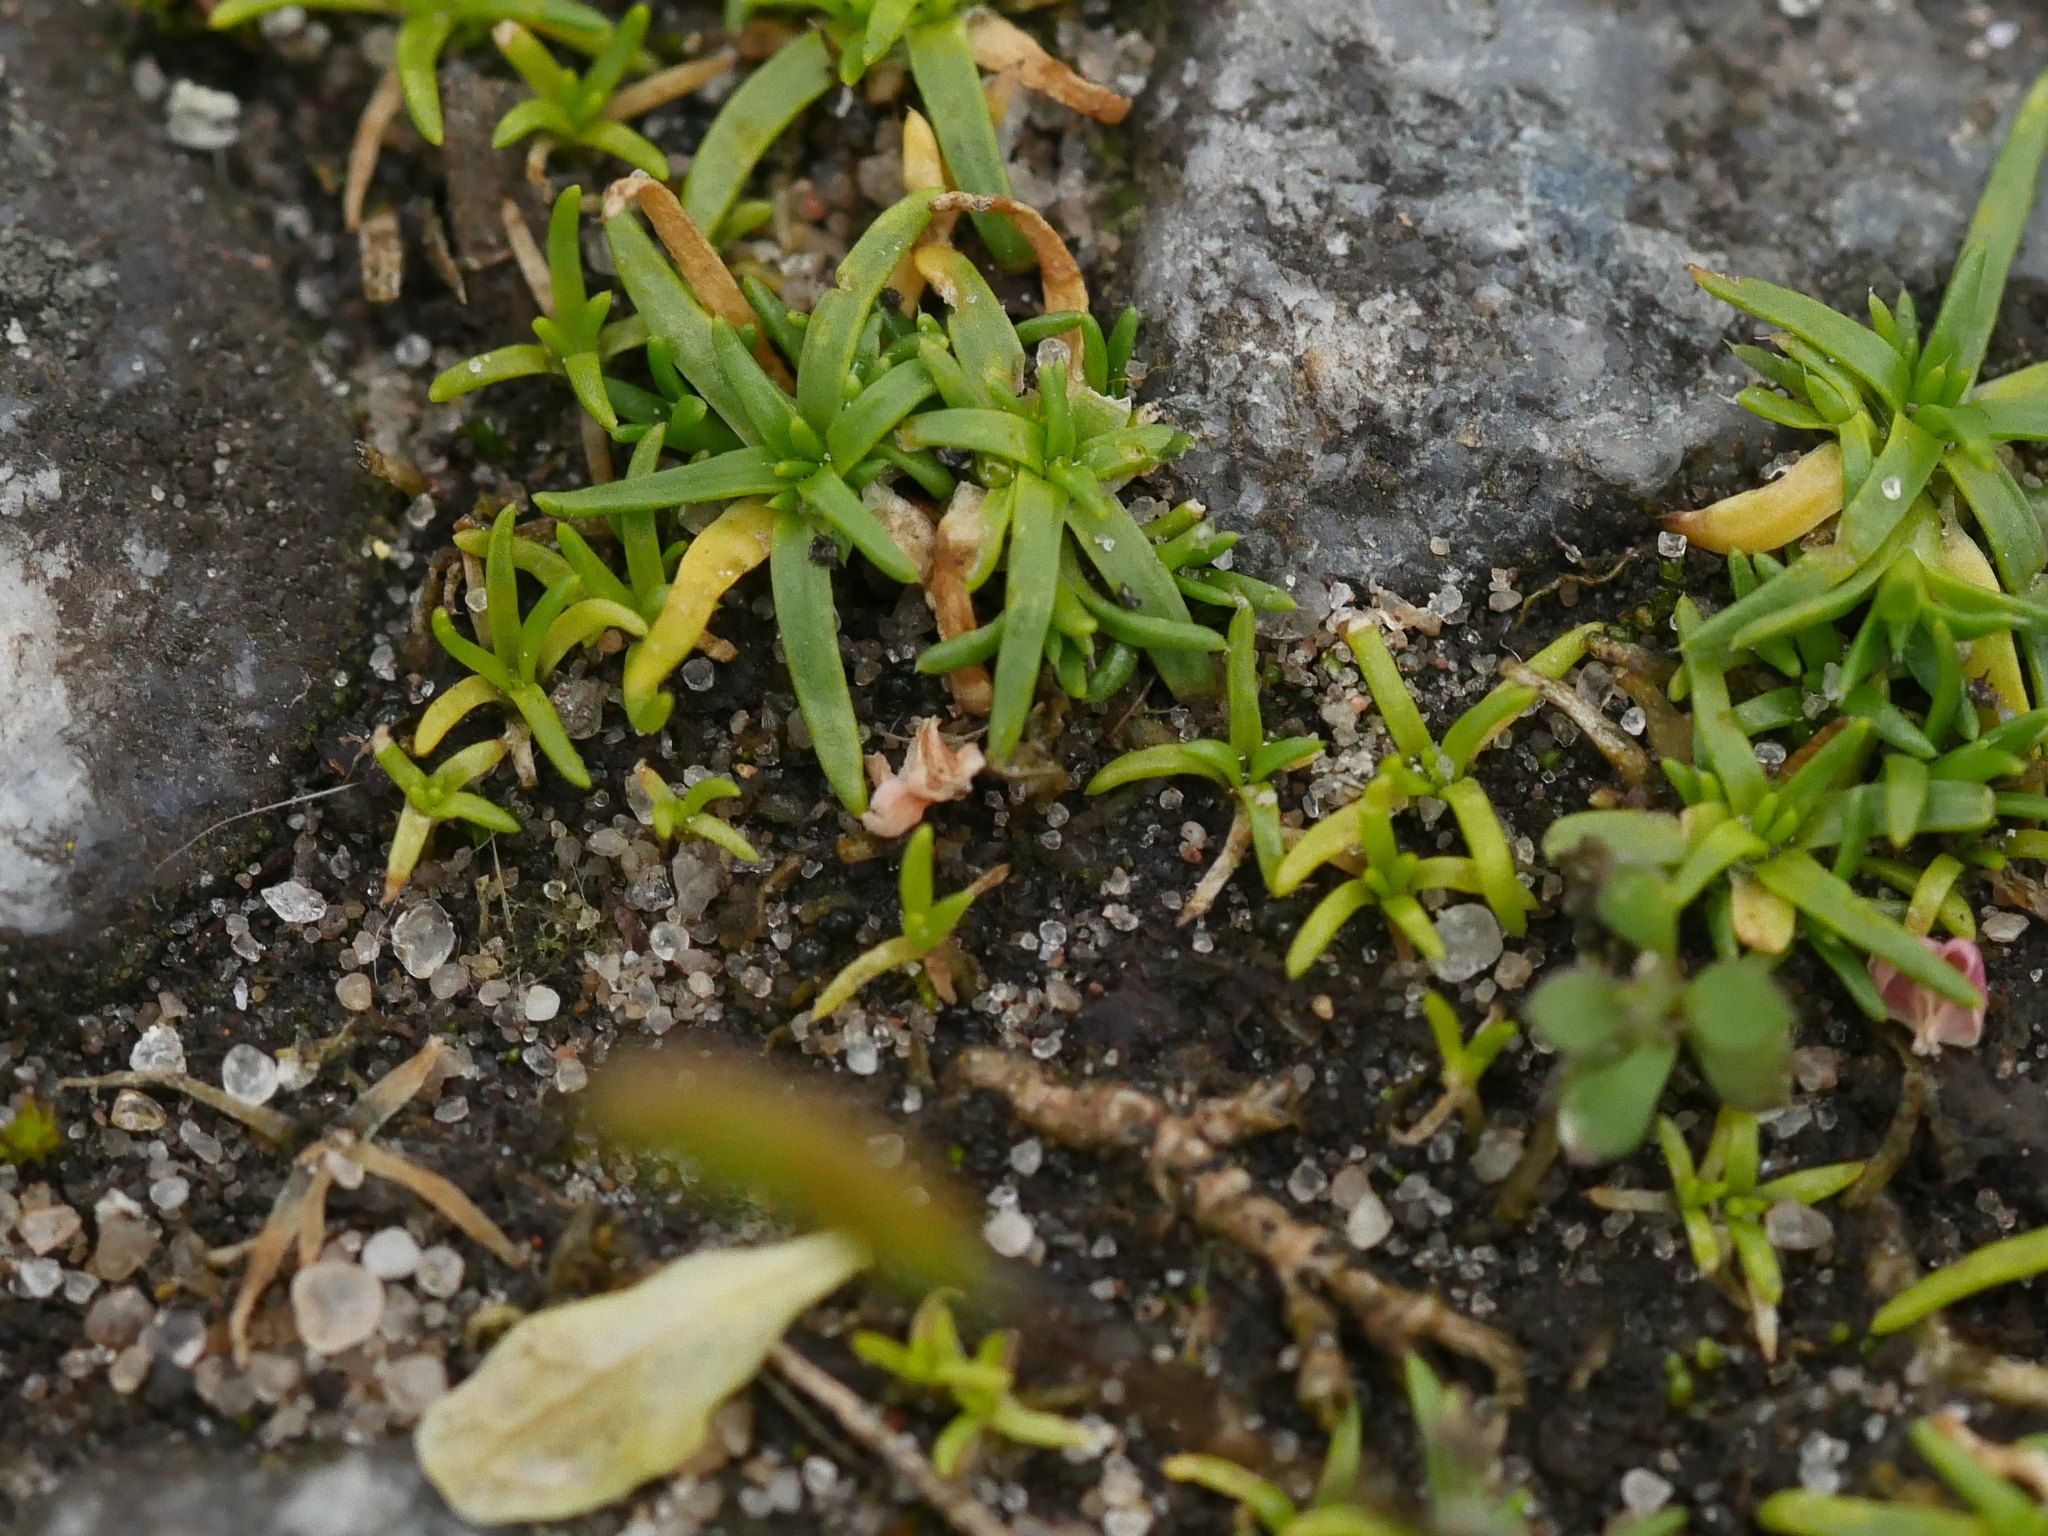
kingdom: Plantae
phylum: Tracheophyta
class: Magnoliopsida
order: Caryophyllales
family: Caryophyllaceae
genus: Sagina
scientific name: Sagina procumbens
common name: Procumbent pearlwort
